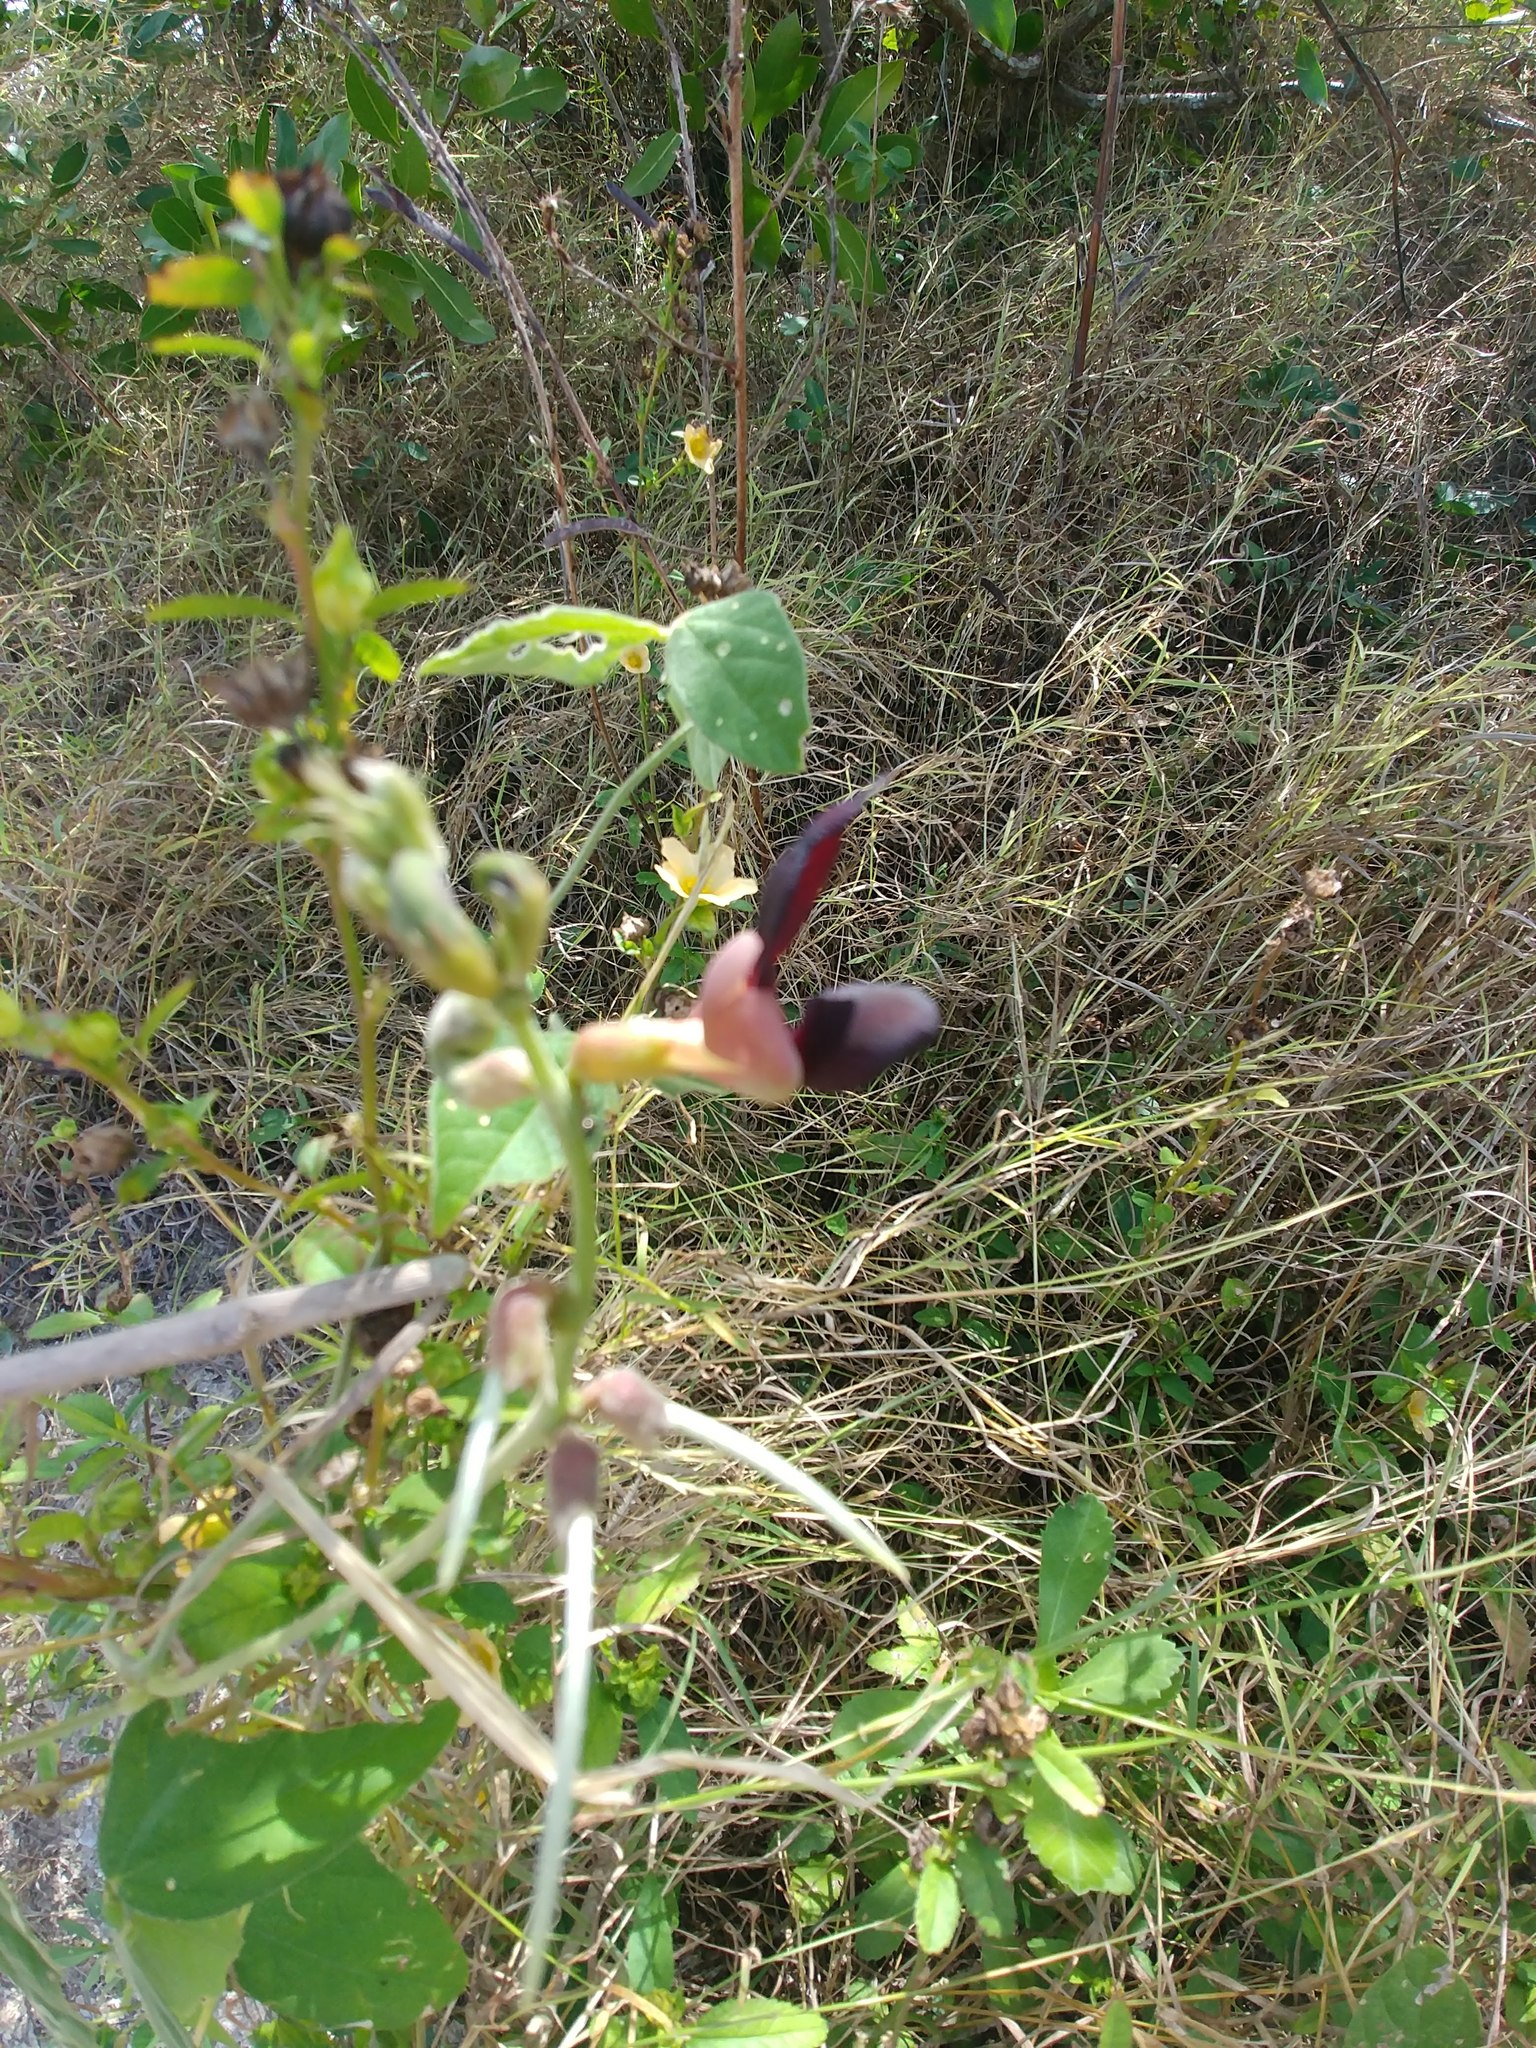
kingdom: Plantae
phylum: Tracheophyta
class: Magnoliopsida
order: Fabales
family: Fabaceae
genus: Macroptilium
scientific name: Macroptilium atropurpureum
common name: Purple bushbean
